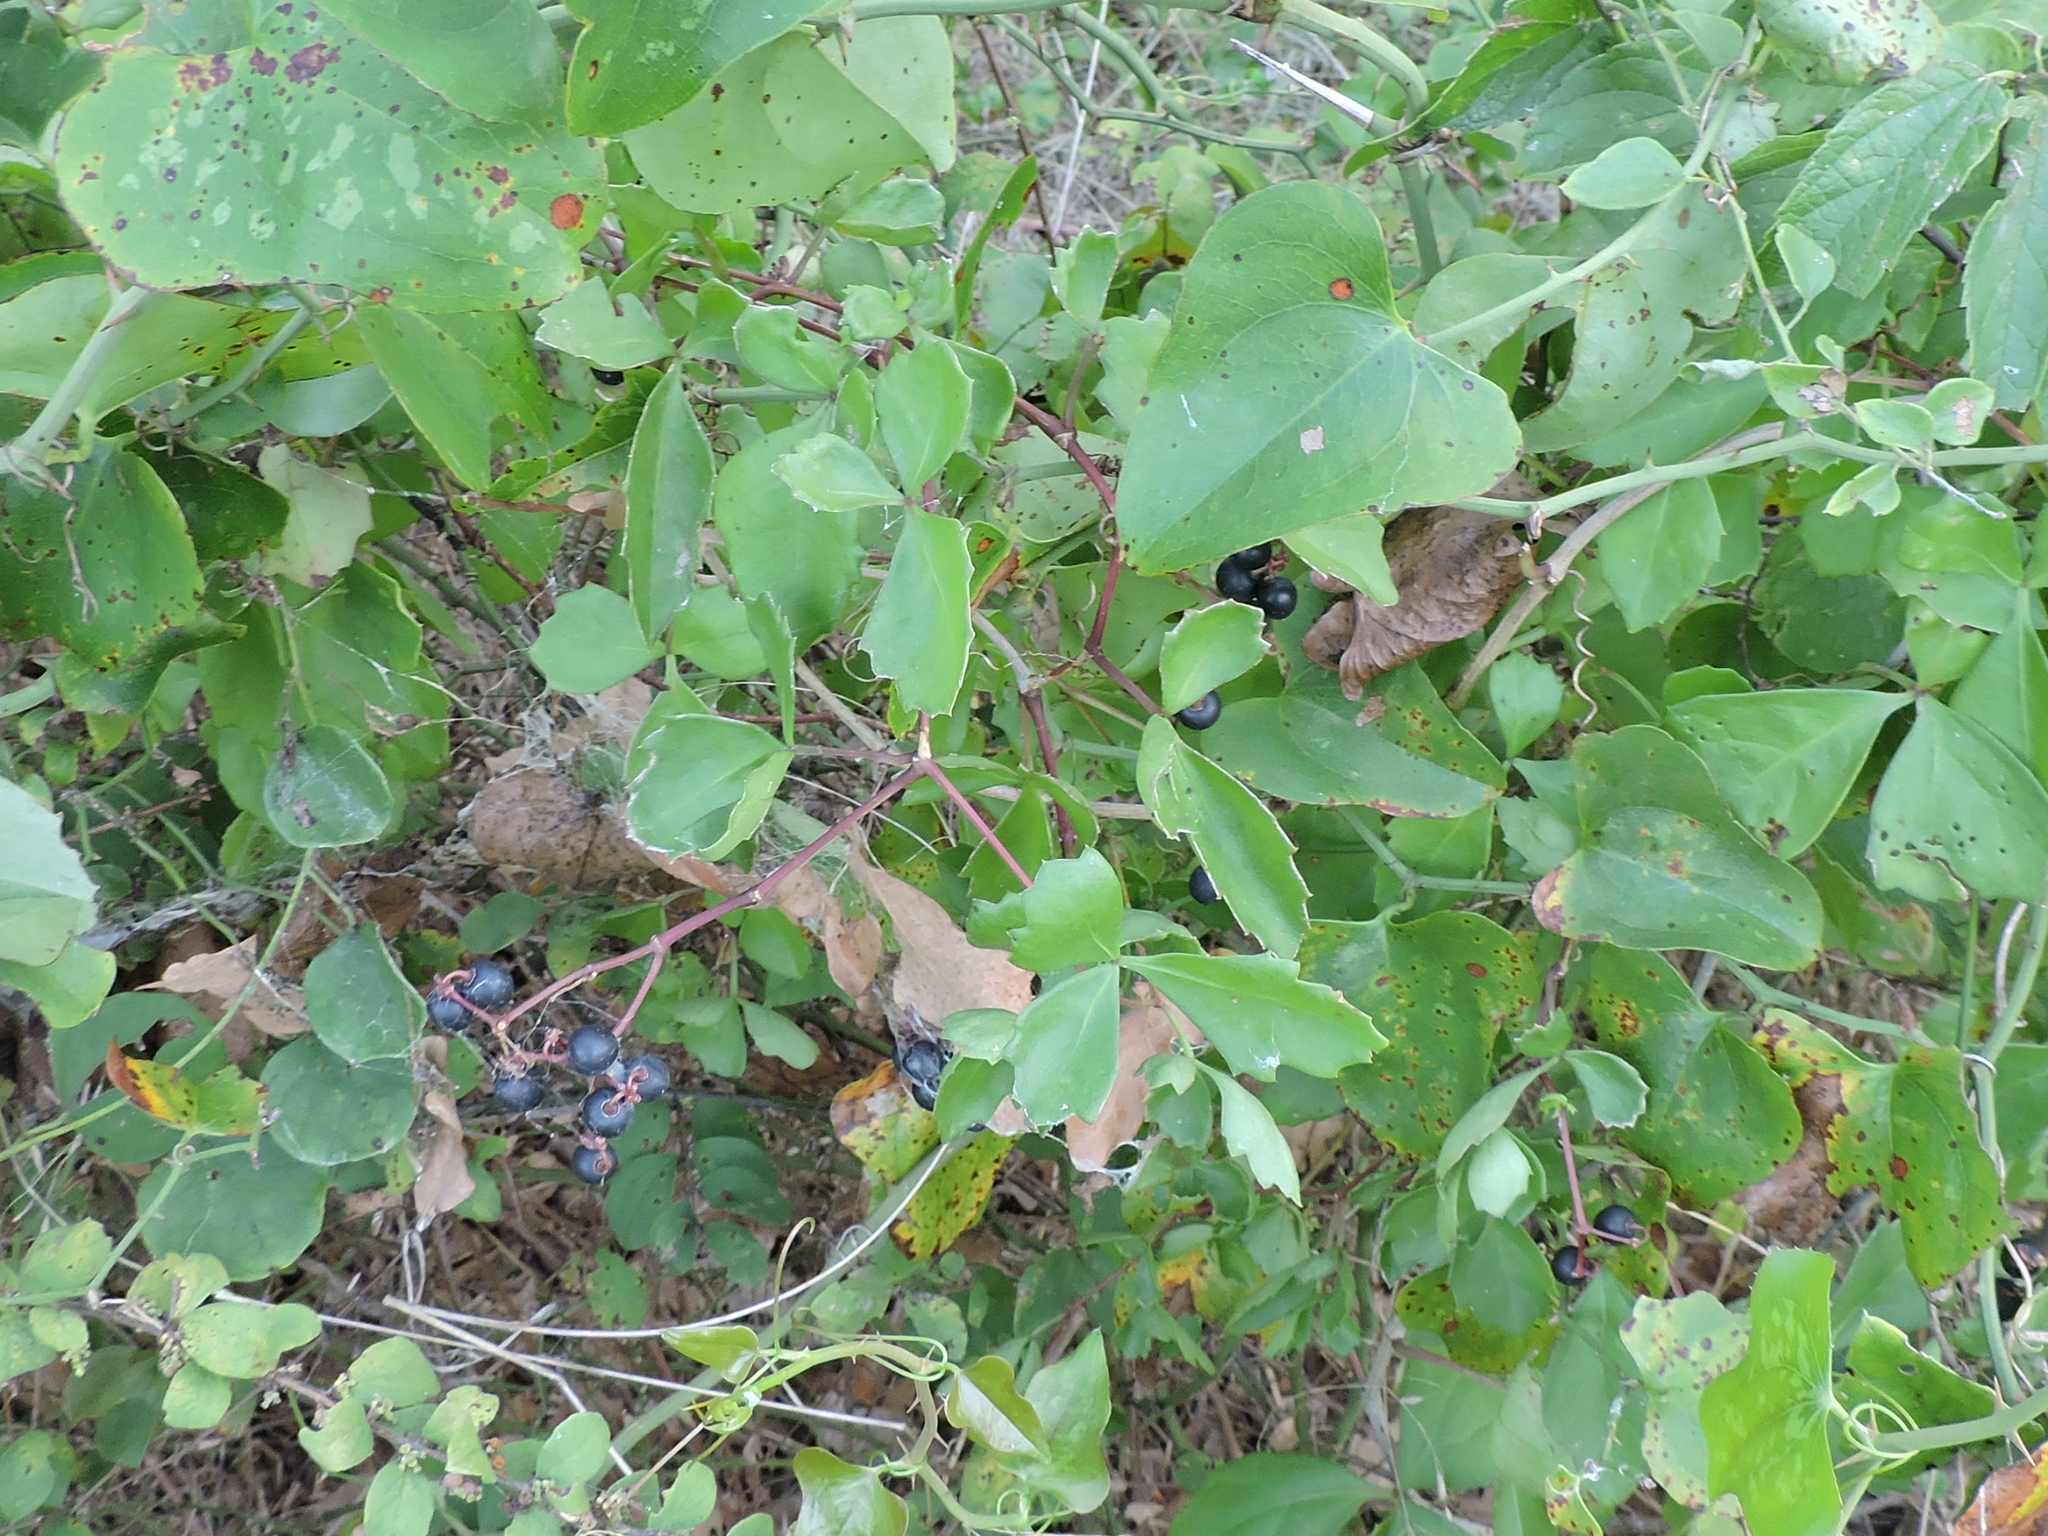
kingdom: Plantae
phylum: Tracheophyta
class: Magnoliopsida
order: Vitales
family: Vitaceae
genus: Cissus
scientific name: Cissus trifoliata
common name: Vine-sorrel
